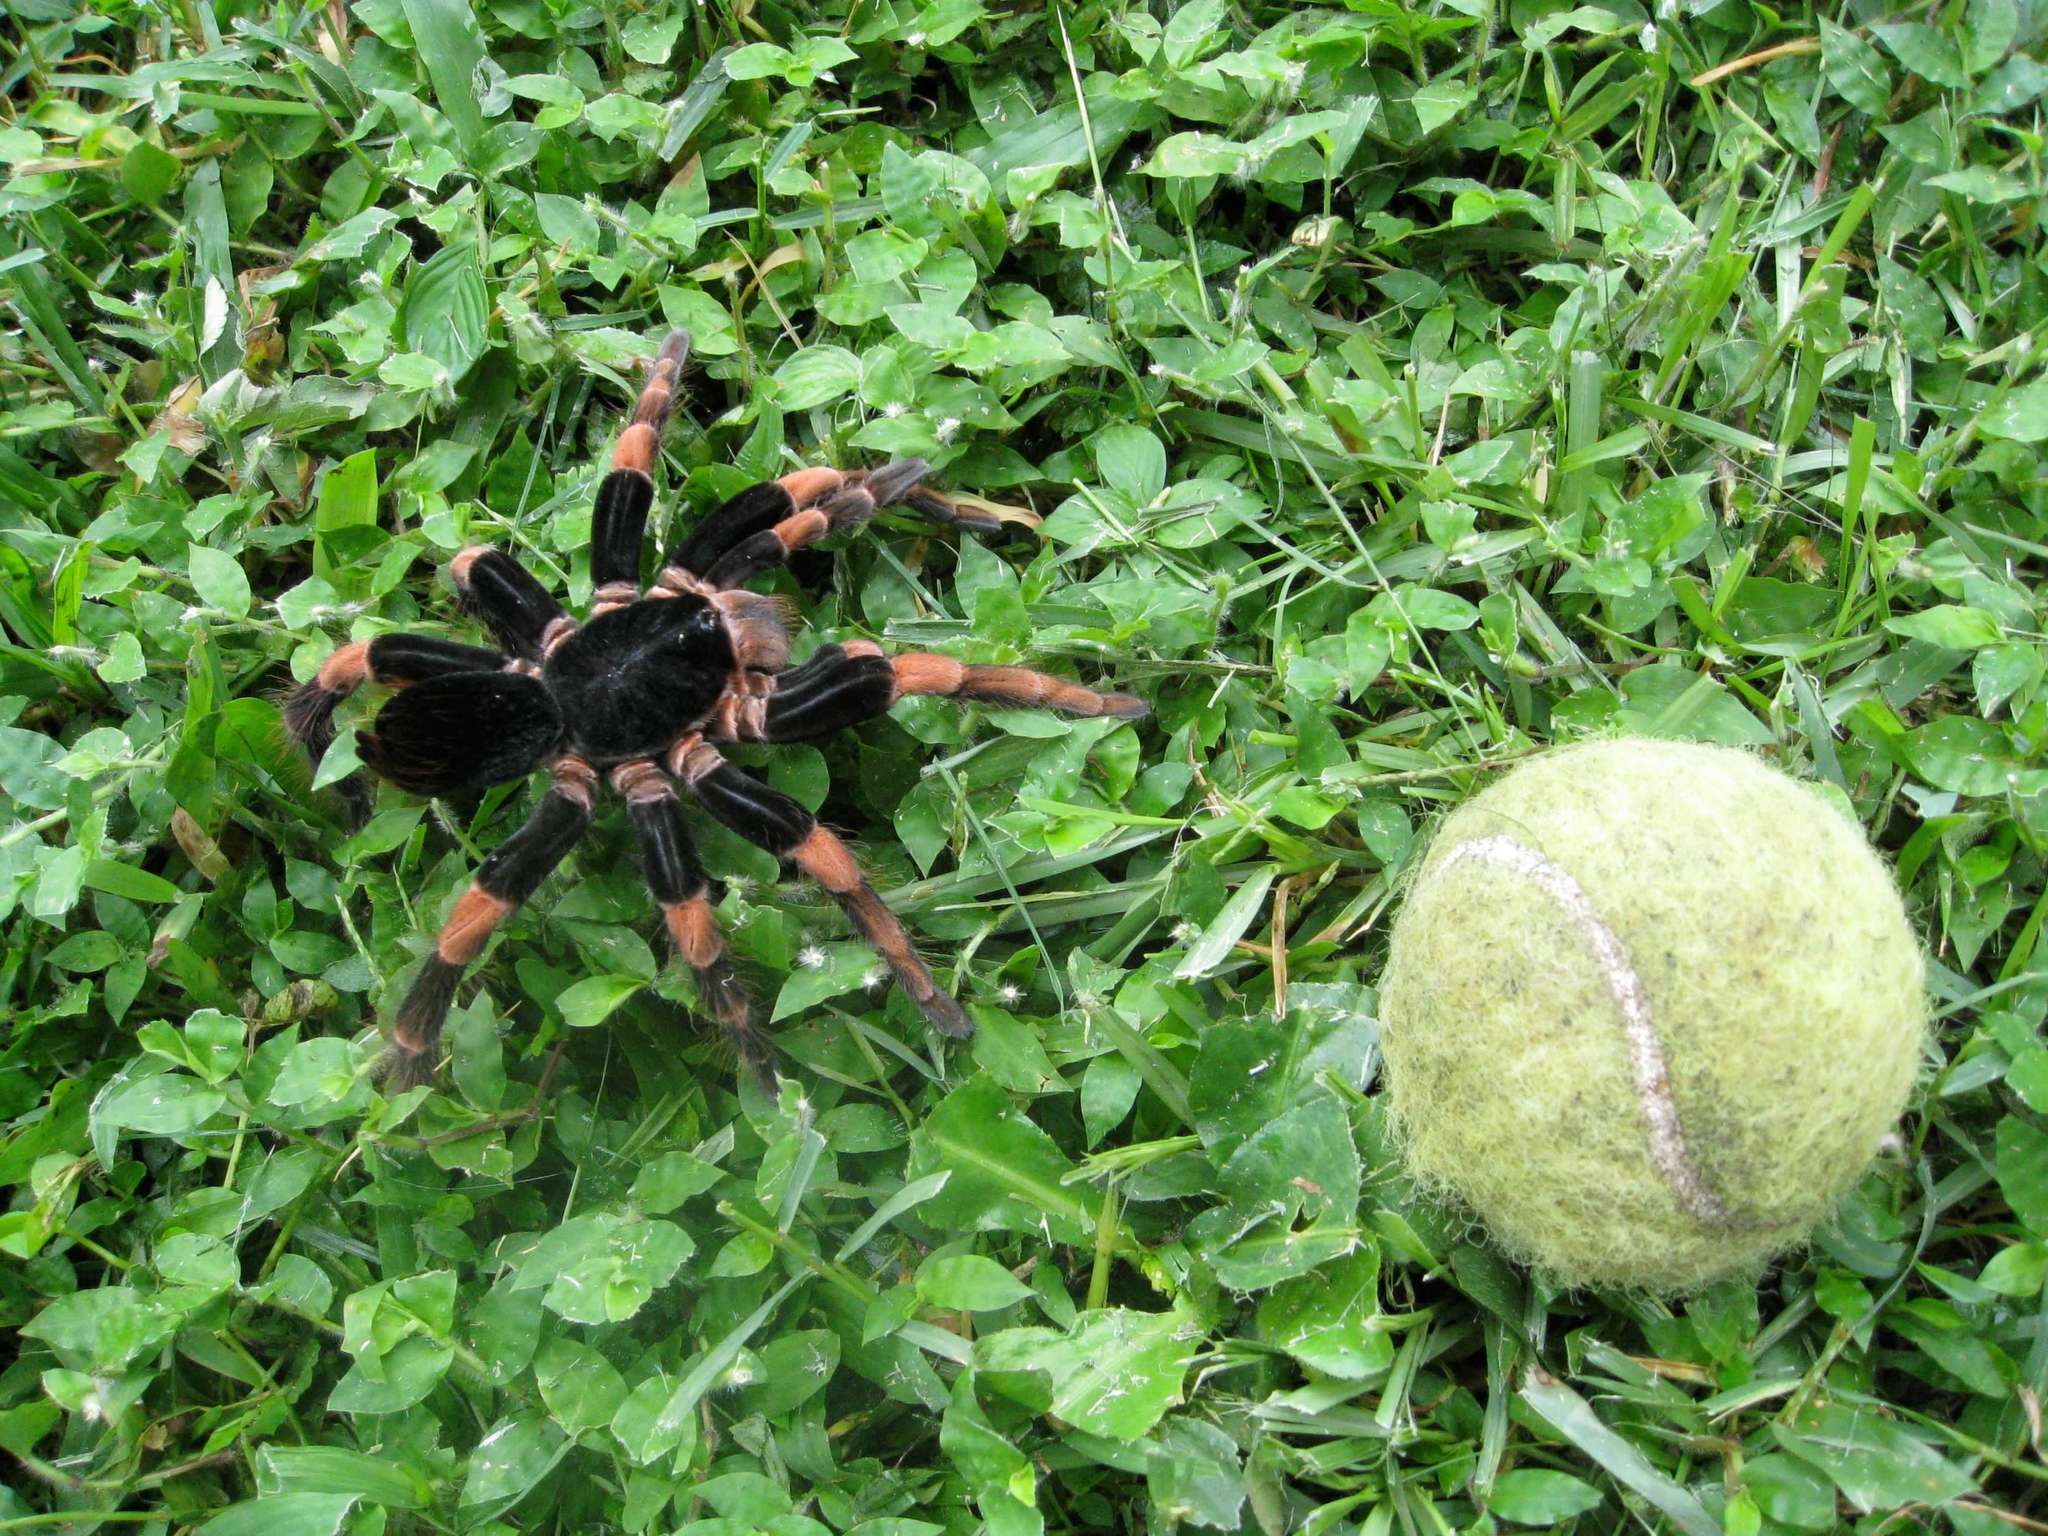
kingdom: Animalia
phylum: Arthropoda
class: Arachnida
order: Araneae
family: Theraphosidae
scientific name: Theraphosidae
